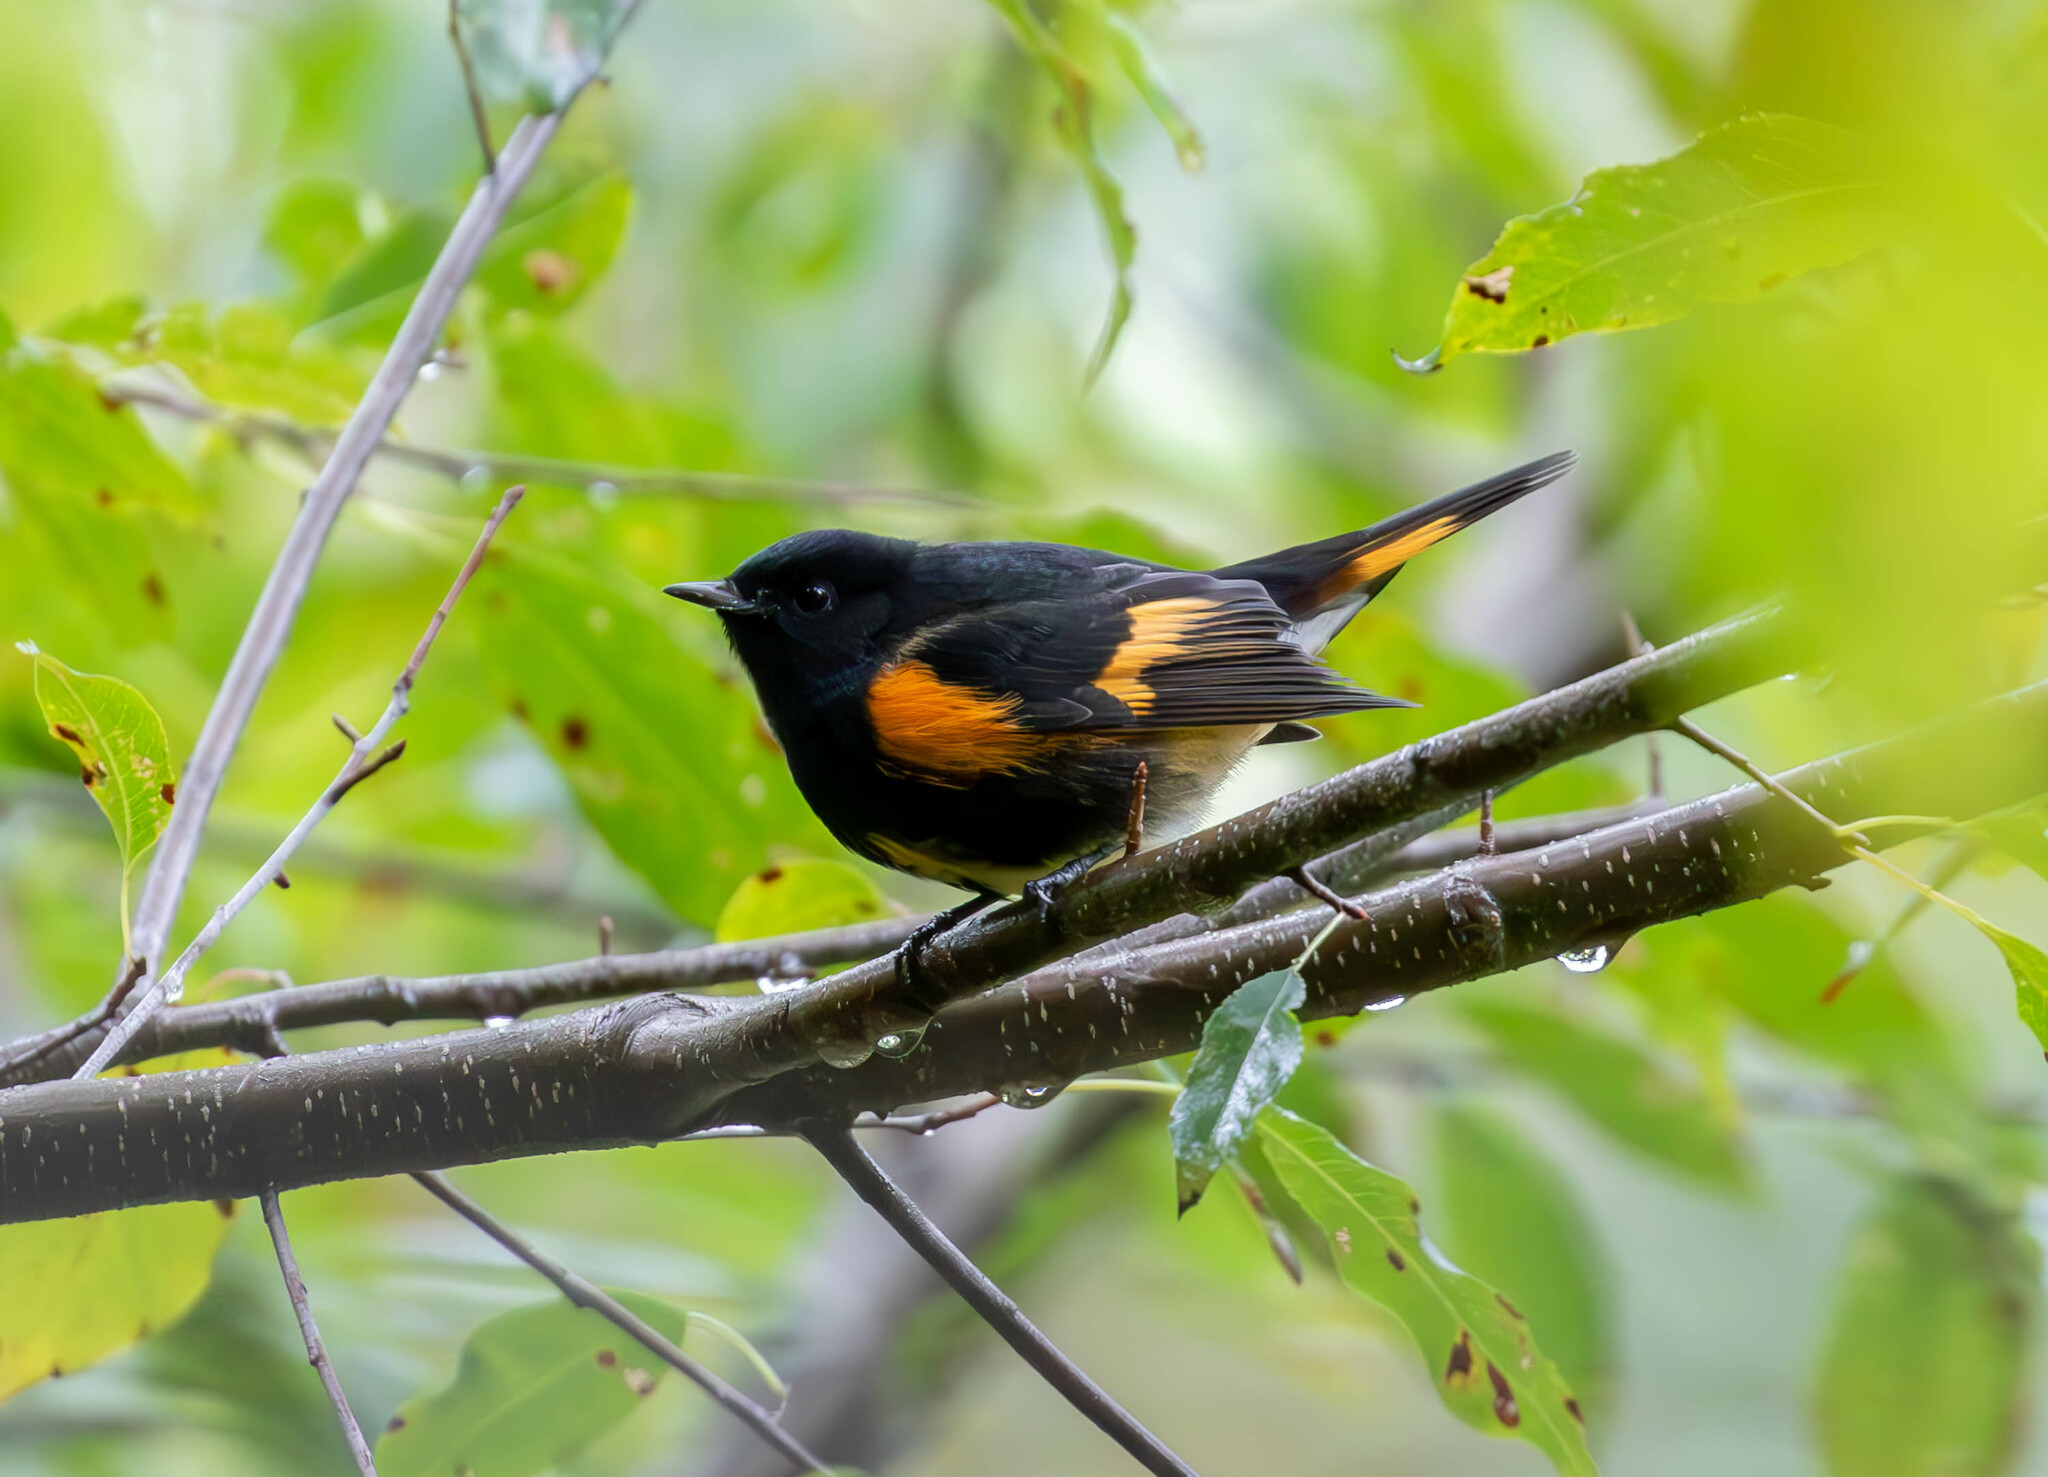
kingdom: Animalia
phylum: Chordata
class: Aves
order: Passeriformes
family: Parulidae
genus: Setophaga
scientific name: Setophaga ruticilla
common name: American redstart
